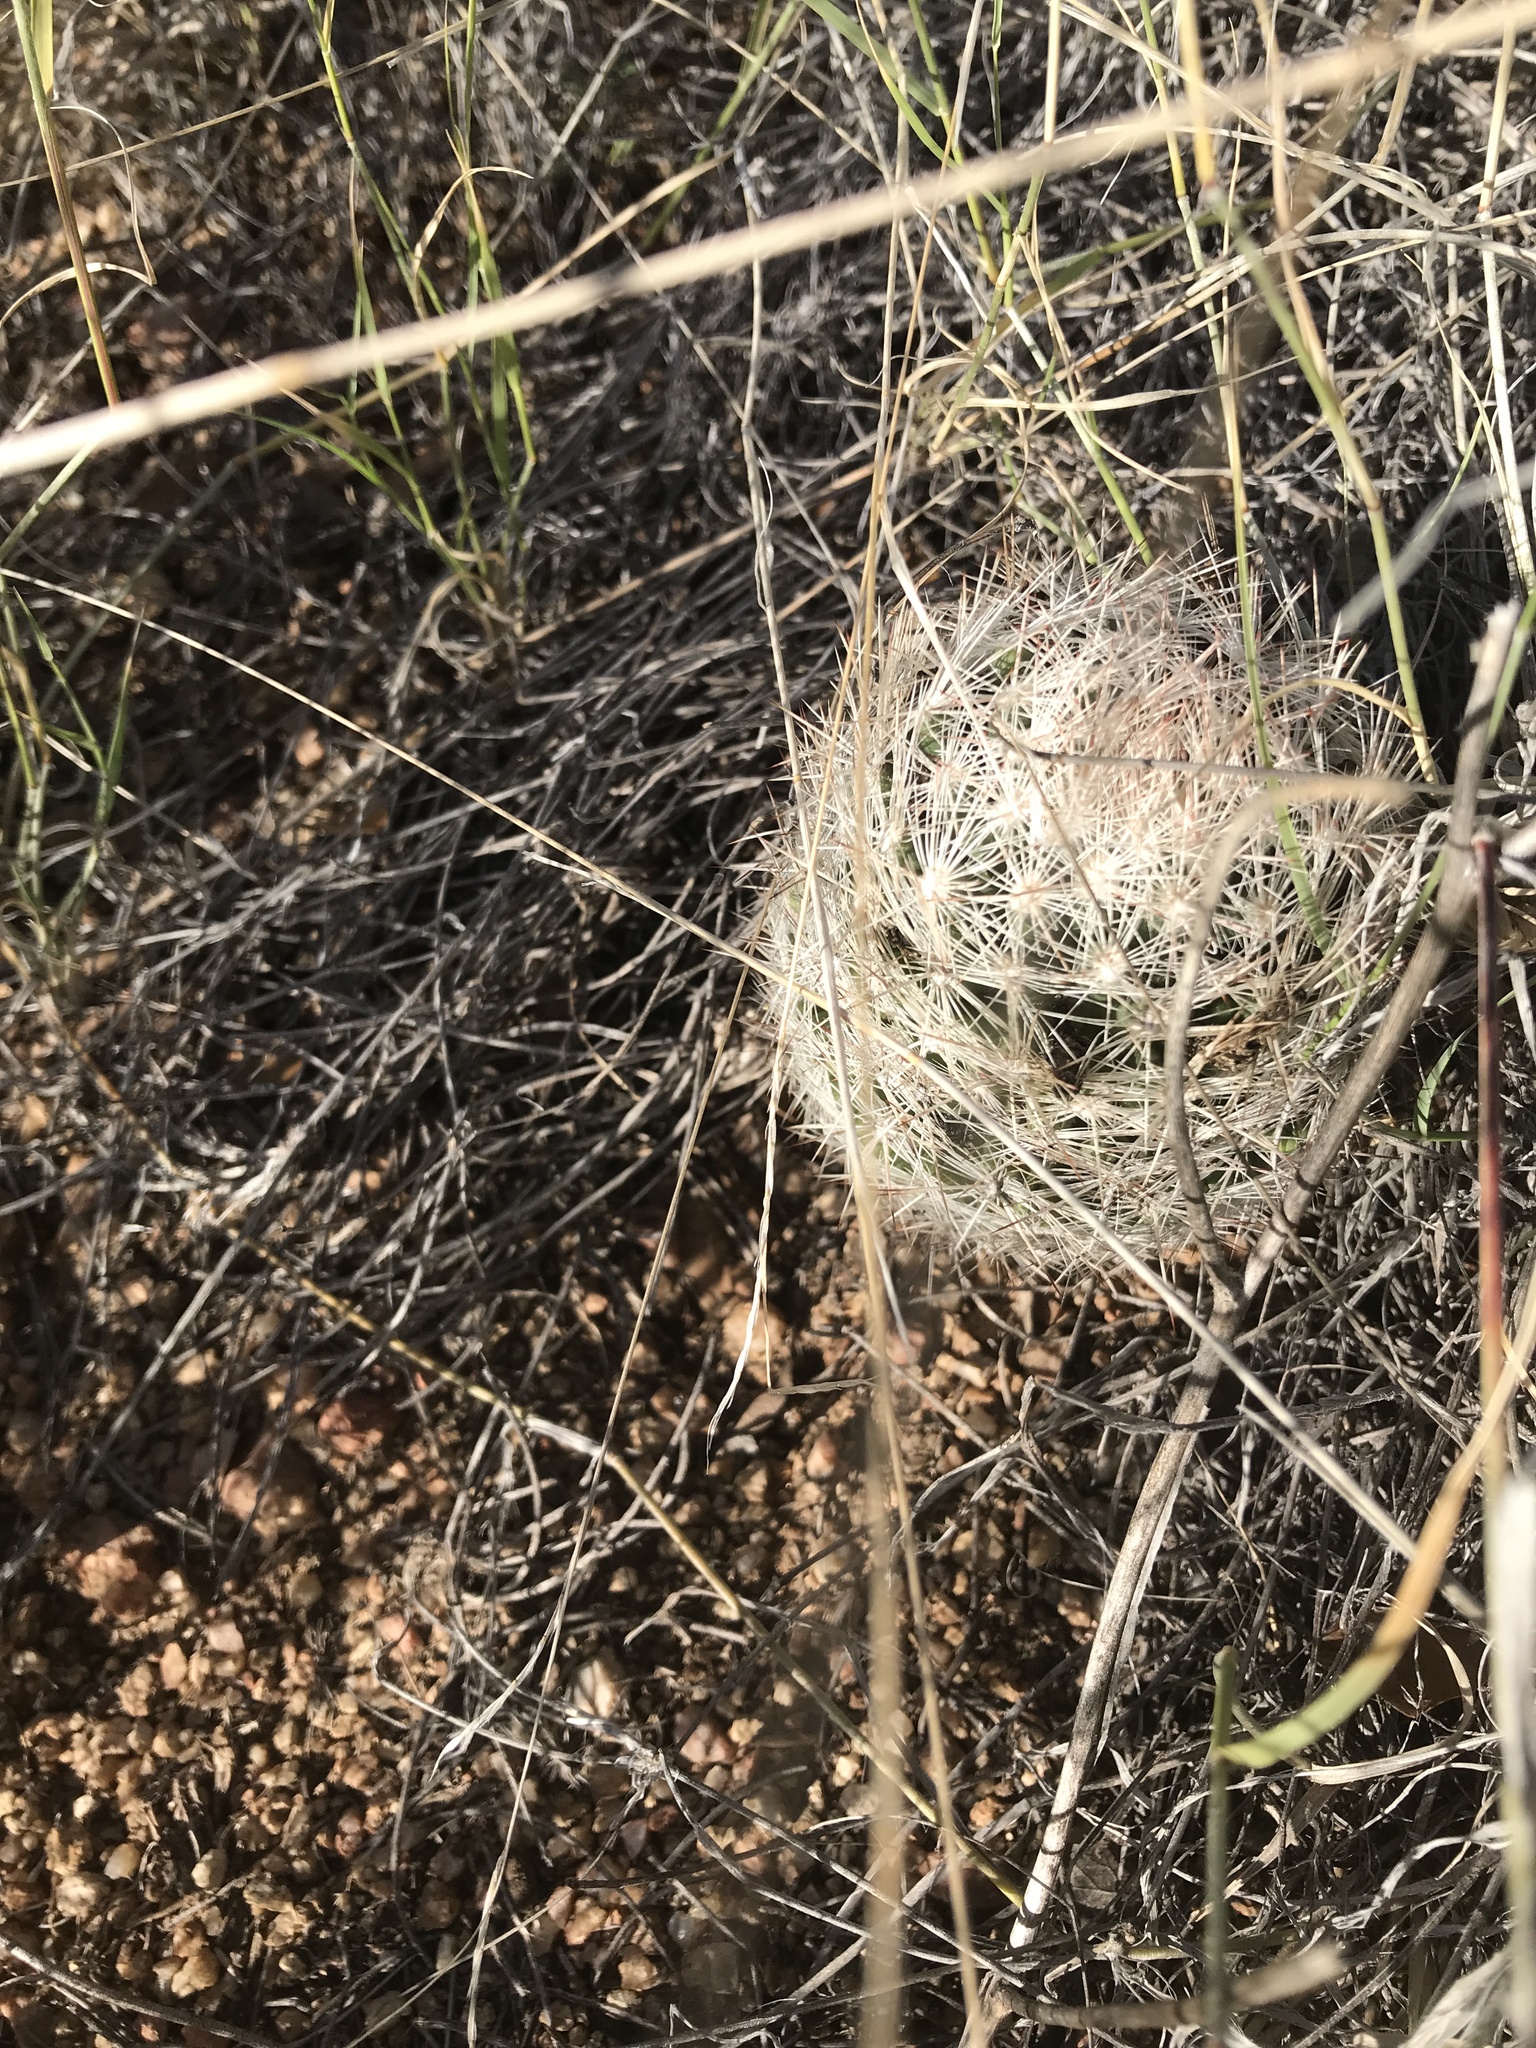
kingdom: Plantae
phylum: Tracheophyta
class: Magnoliopsida
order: Caryophyllales
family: Cactaceae
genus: Pelecyphora
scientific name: Pelecyphora vivipara
